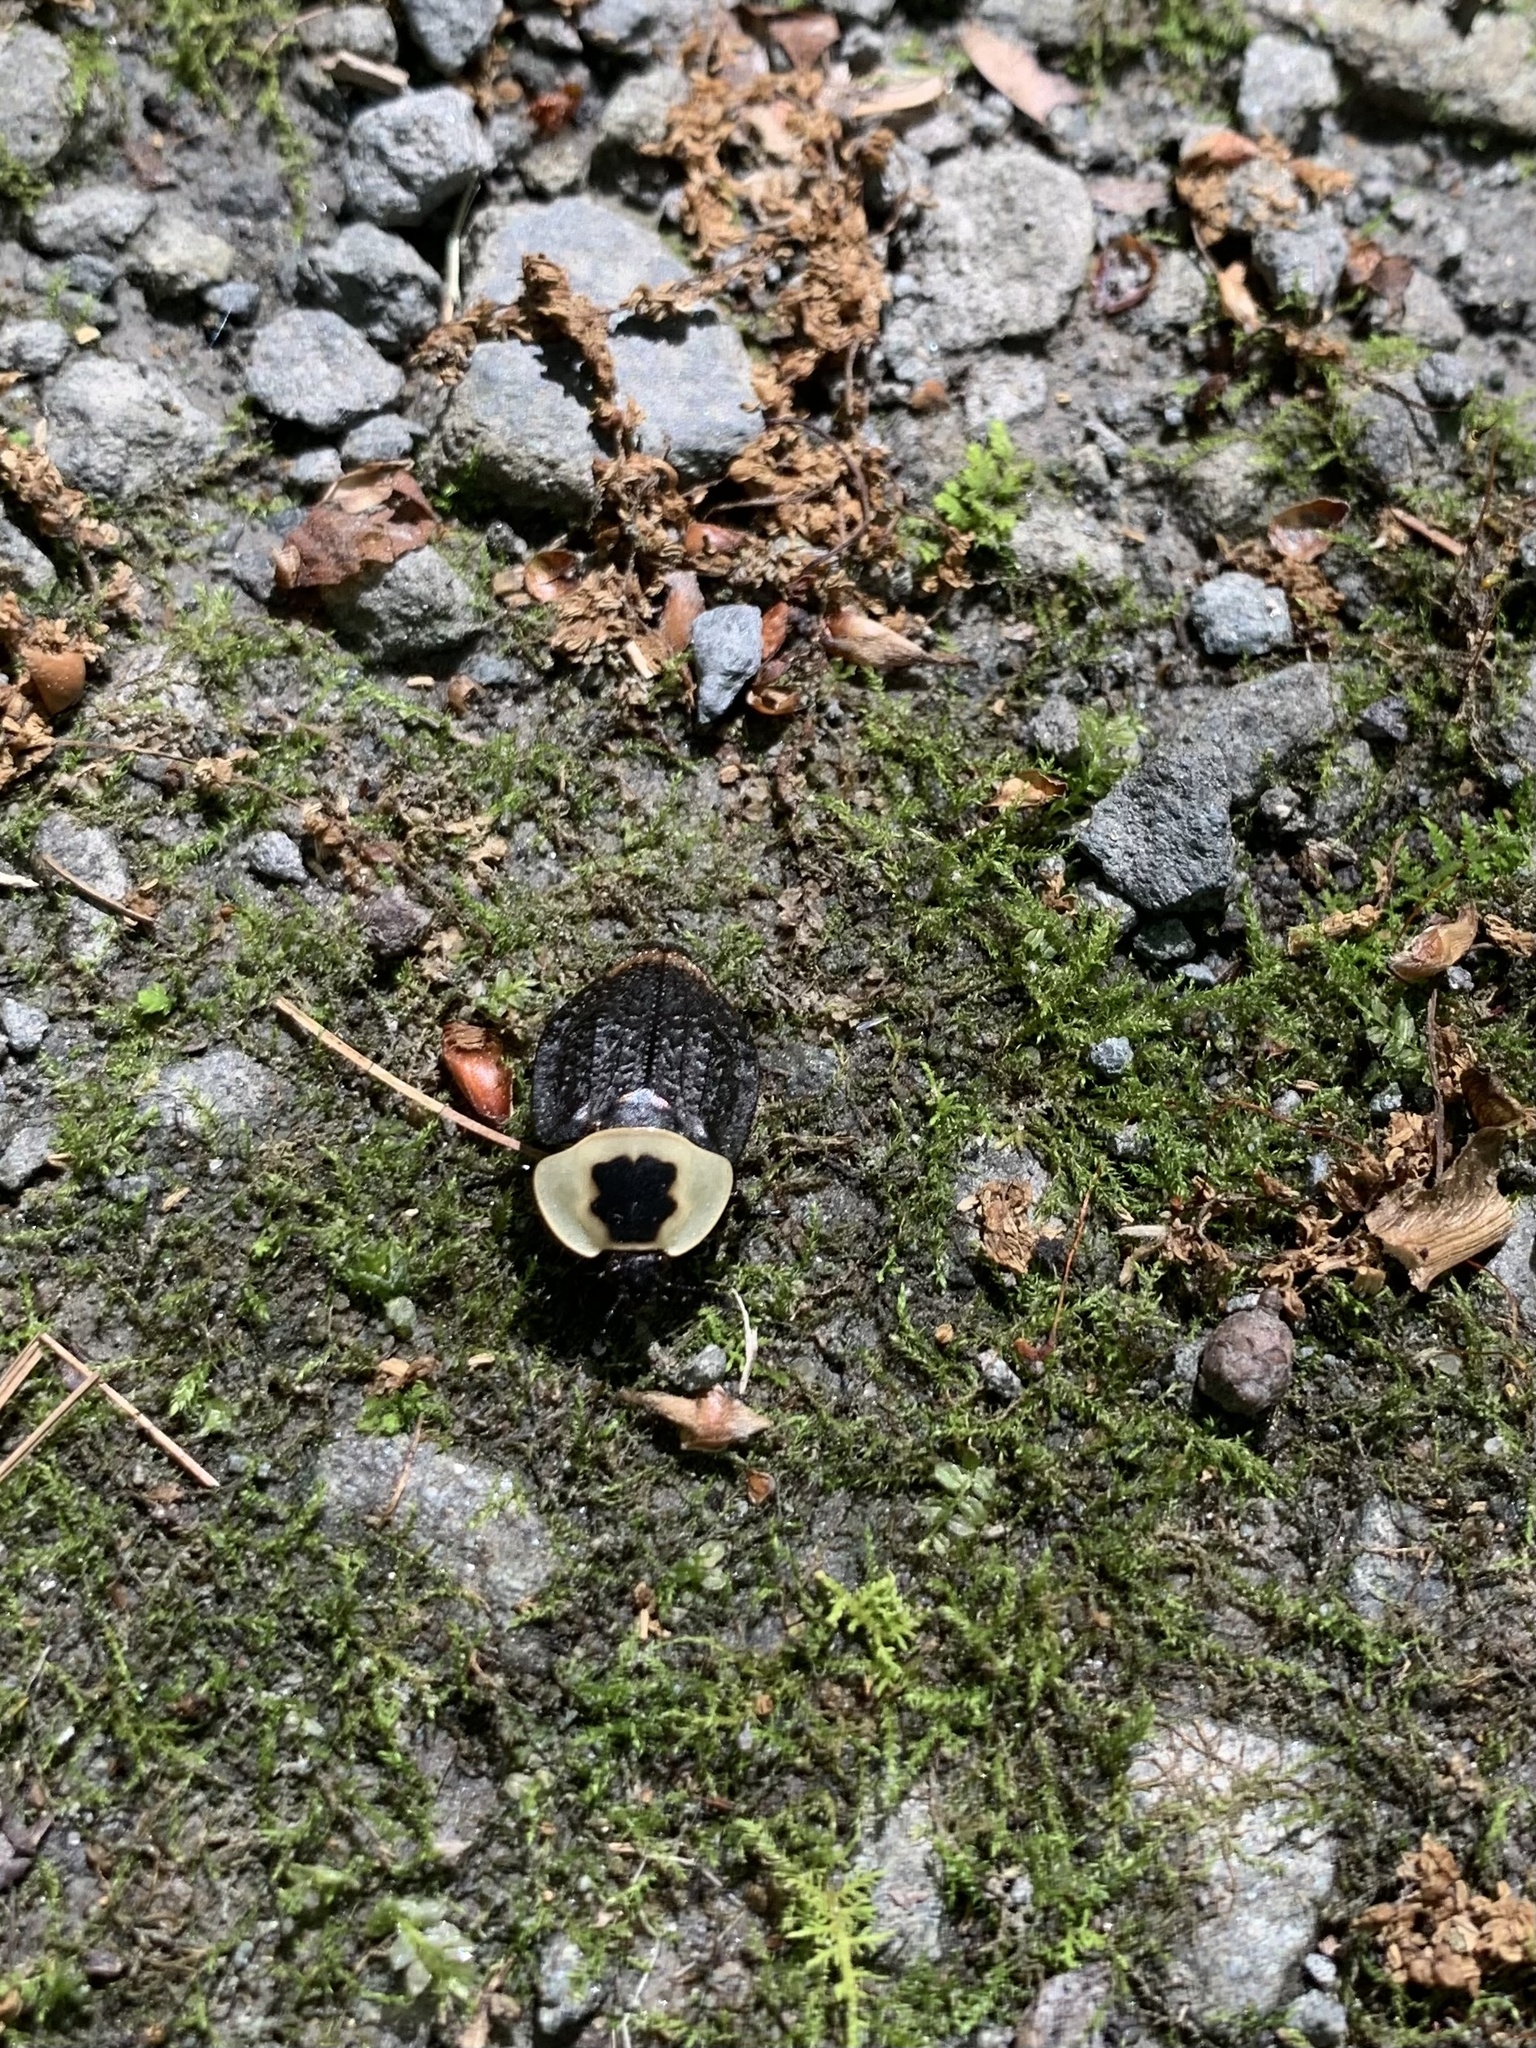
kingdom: Animalia
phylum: Arthropoda
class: Insecta
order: Coleoptera
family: Staphylinidae
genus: Necrophila
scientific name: Necrophila americana
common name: American carrion beetle
